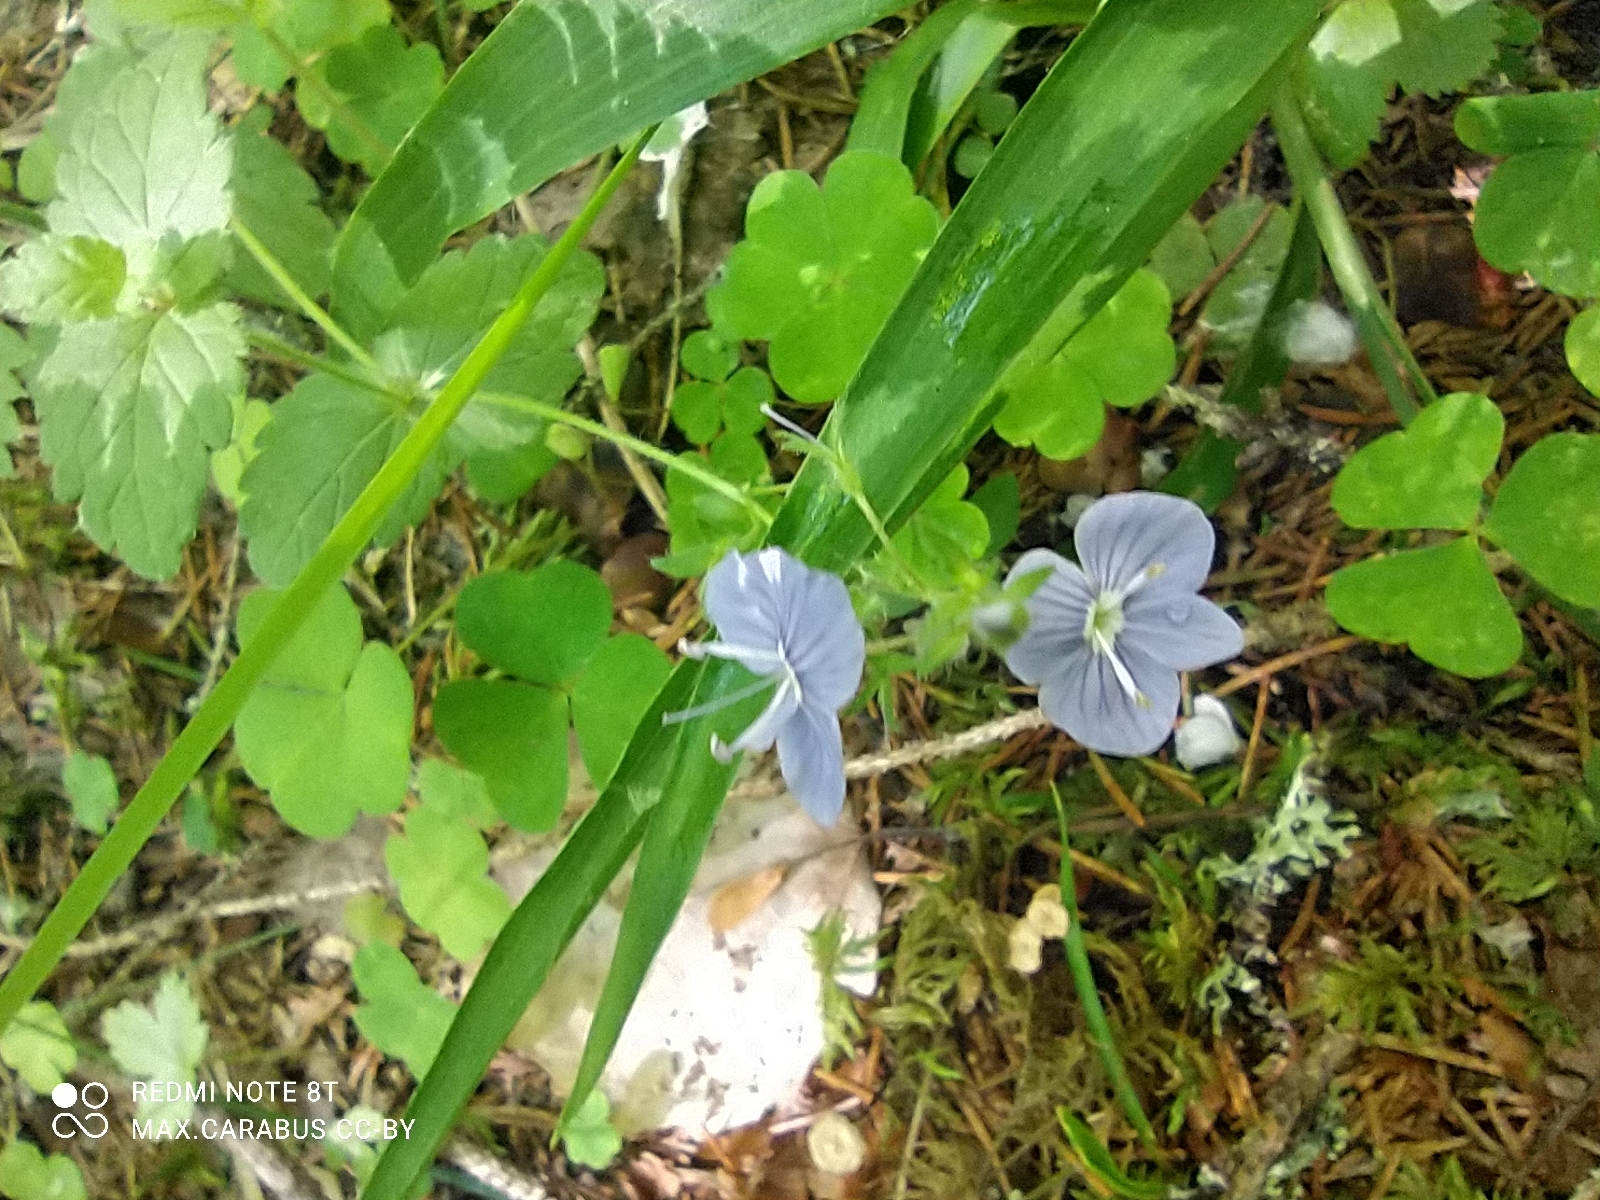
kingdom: Plantae
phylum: Tracheophyta
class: Magnoliopsida
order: Lamiales
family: Plantaginaceae
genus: Veronica
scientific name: Veronica chamaedrys
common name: Germander speedwell
